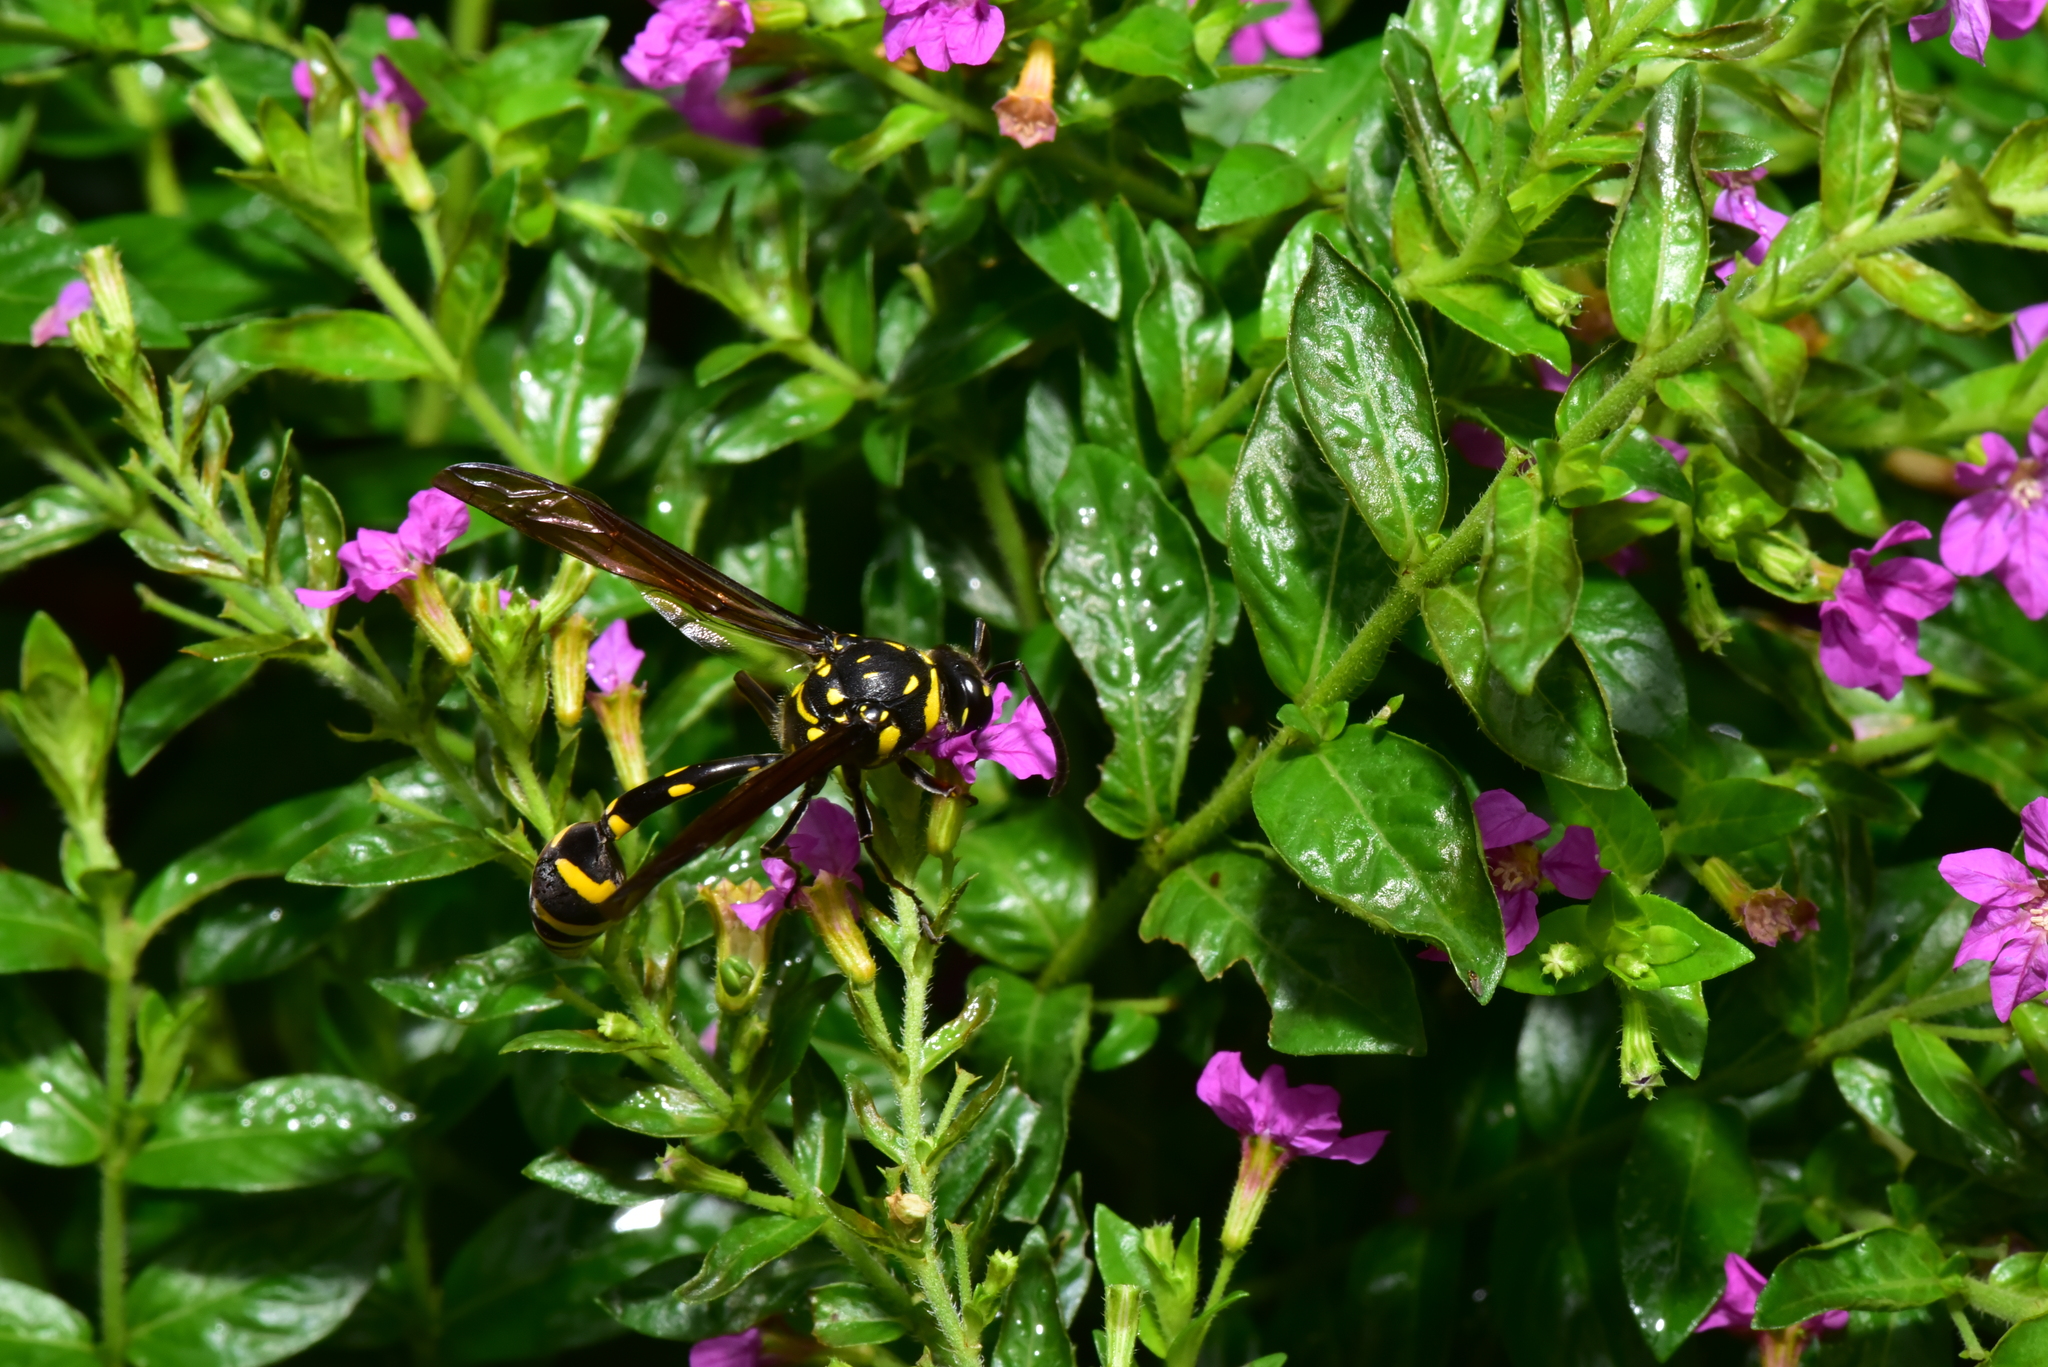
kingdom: Animalia
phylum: Arthropoda
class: Insecta
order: Hymenoptera
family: Eumenidae
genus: Phimenes
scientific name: Phimenes flavopictus
